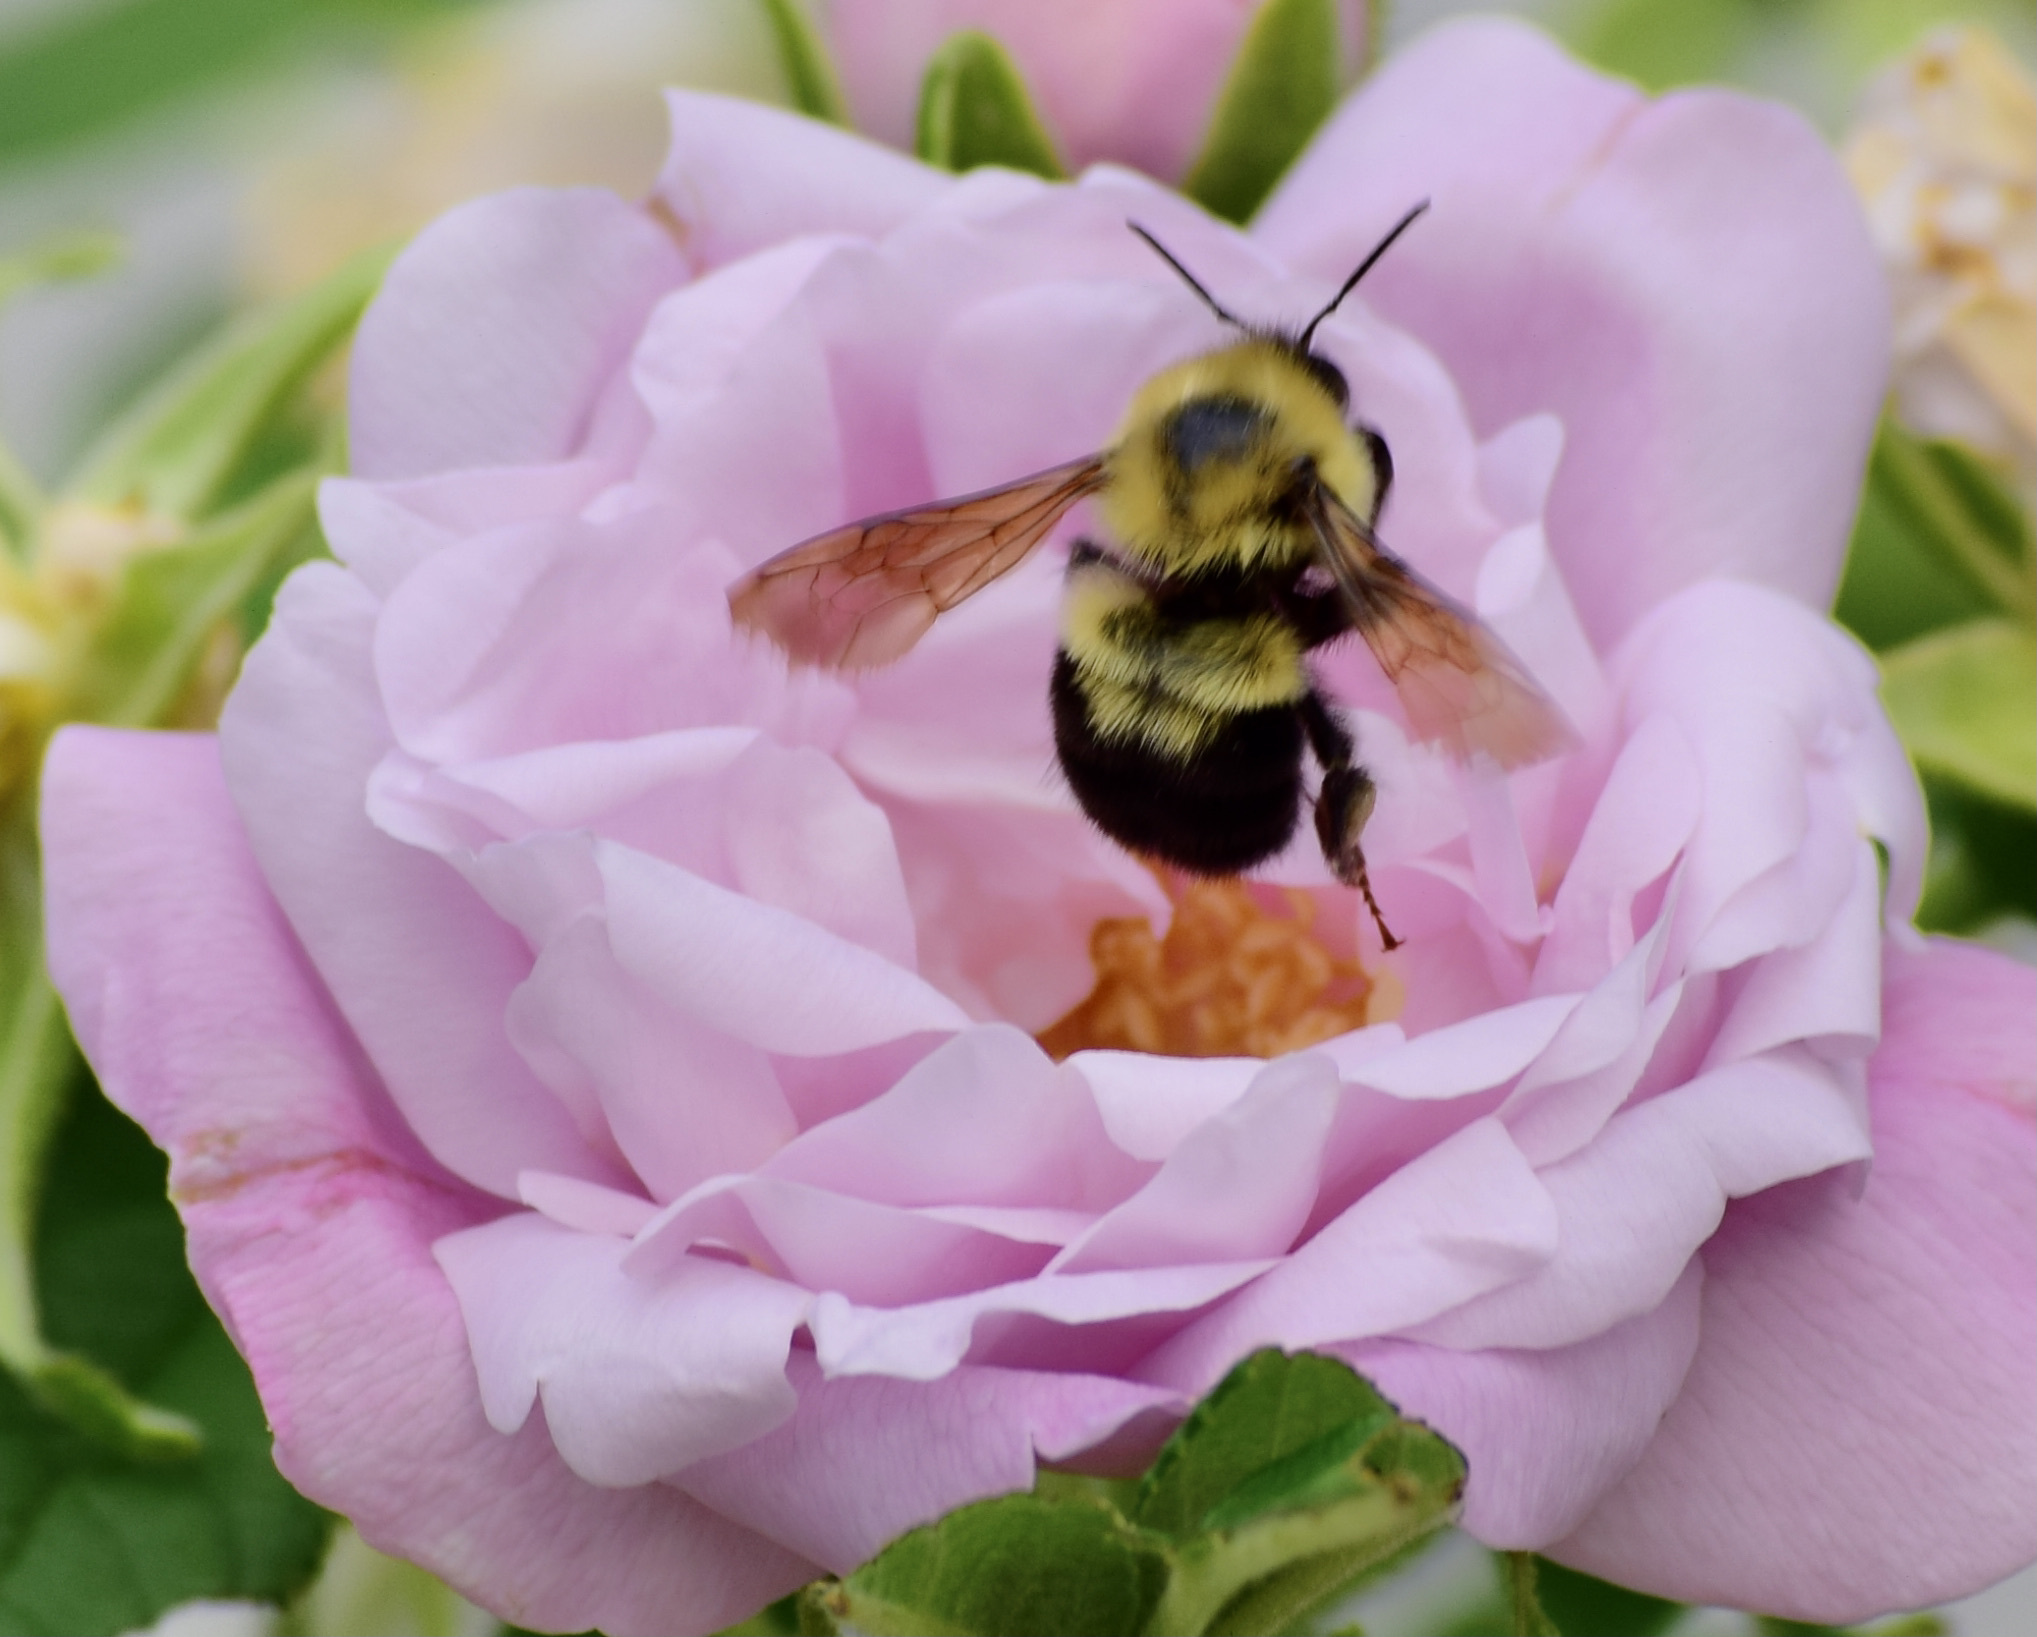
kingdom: Animalia
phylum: Arthropoda
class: Insecta
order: Hymenoptera
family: Apidae
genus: Bombus
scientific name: Bombus bimaculatus
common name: Two-spotted bumble bee
